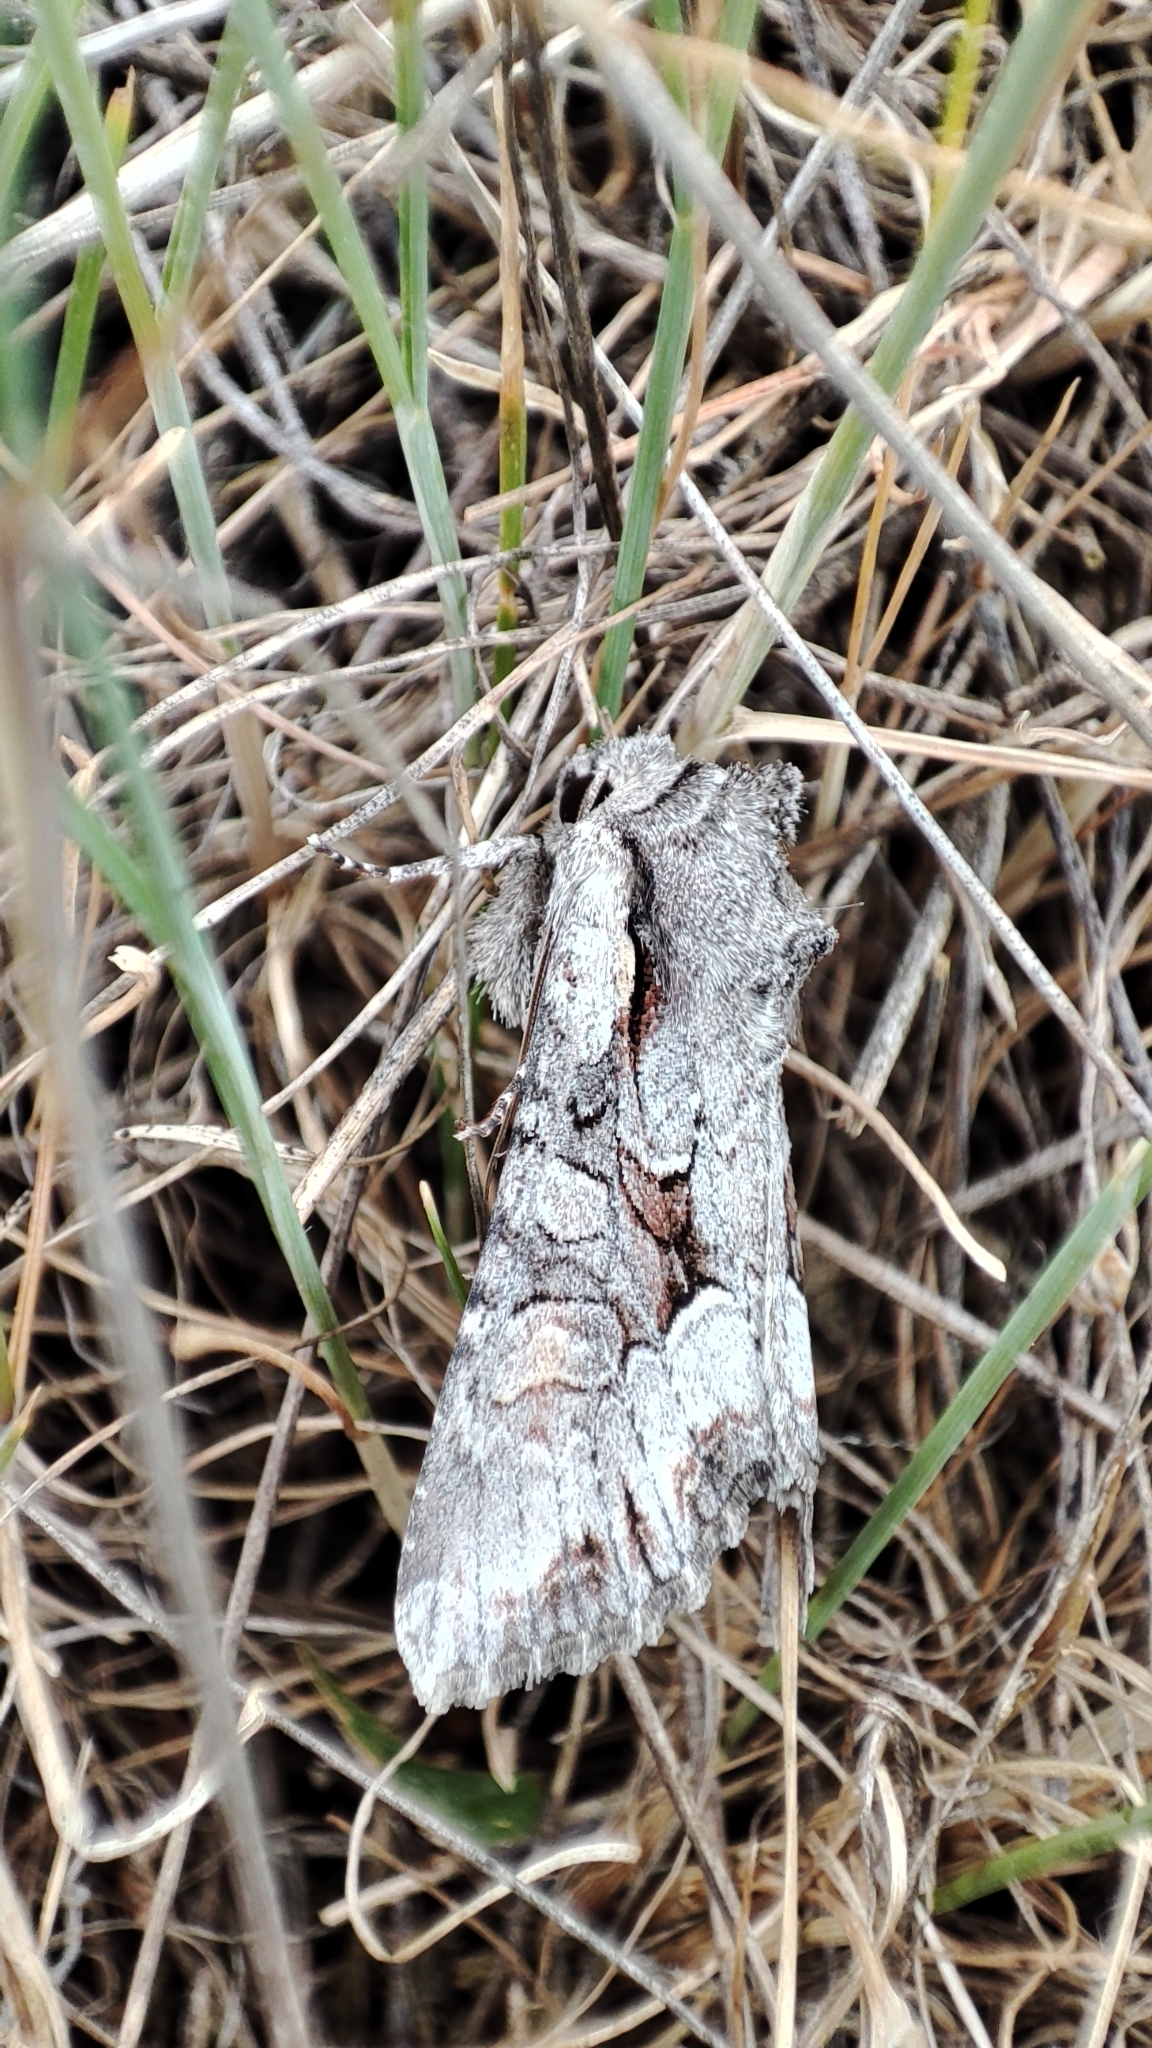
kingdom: Animalia
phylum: Arthropoda
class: Insecta
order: Lepidoptera
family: Noctuidae
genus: Lacanobia
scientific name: Lacanobia w-latinum
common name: Light brocade
